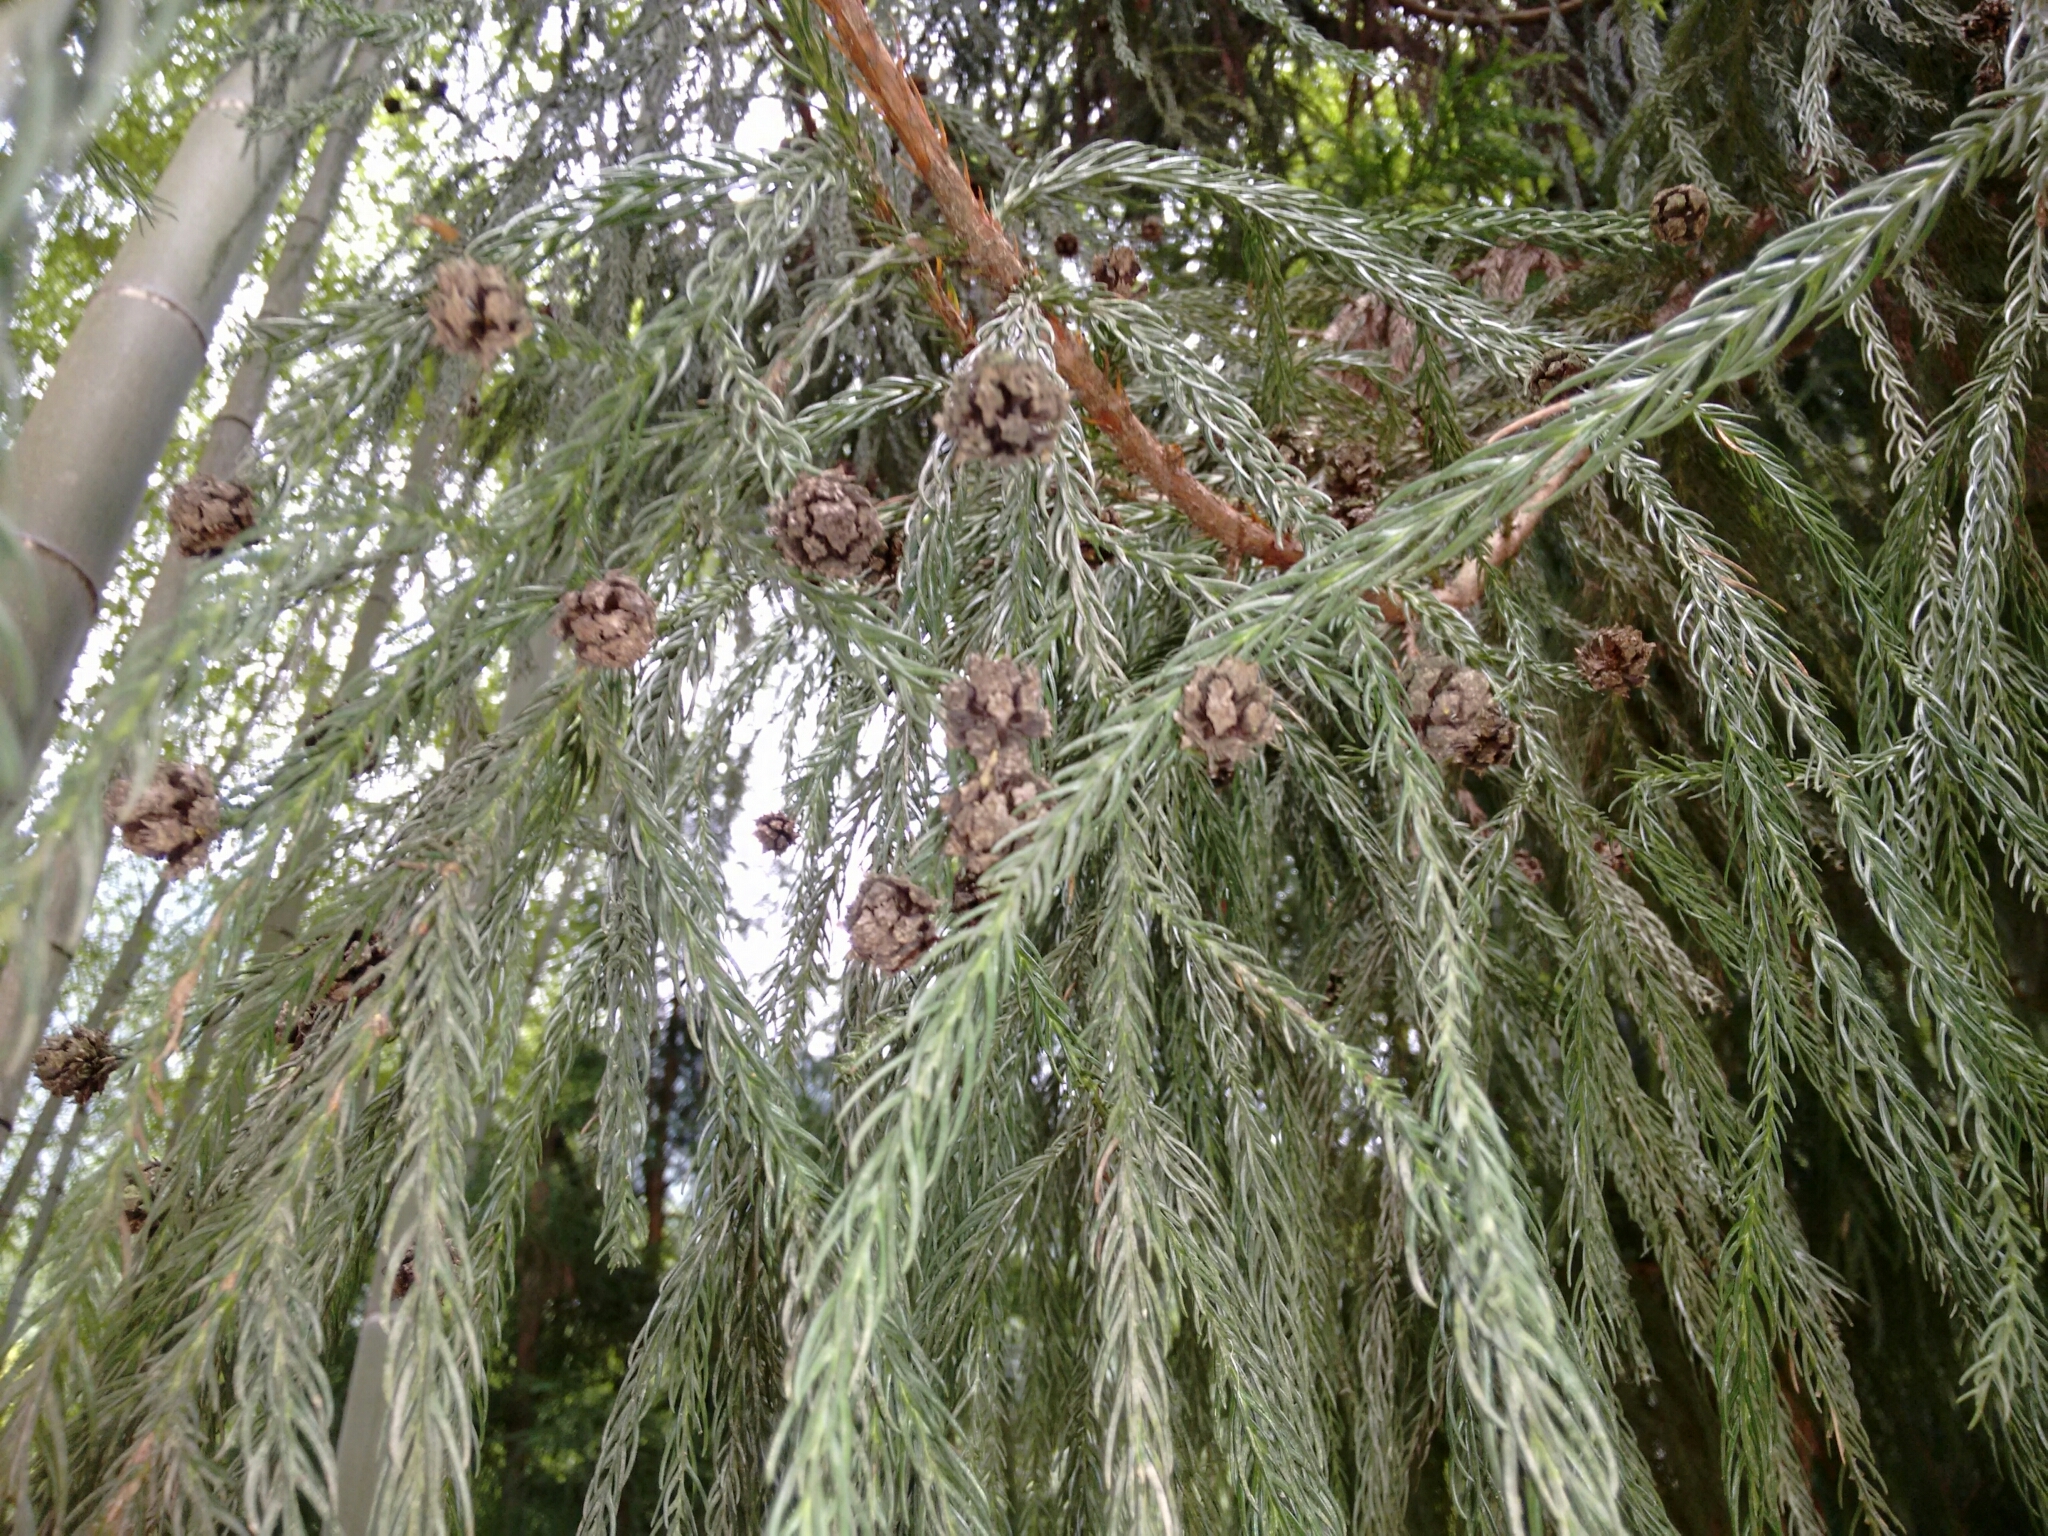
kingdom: Plantae
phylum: Tracheophyta
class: Pinopsida
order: Pinales
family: Cupressaceae
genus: Cryptomeria
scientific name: Cryptomeria japonica
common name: Japanese cedar
